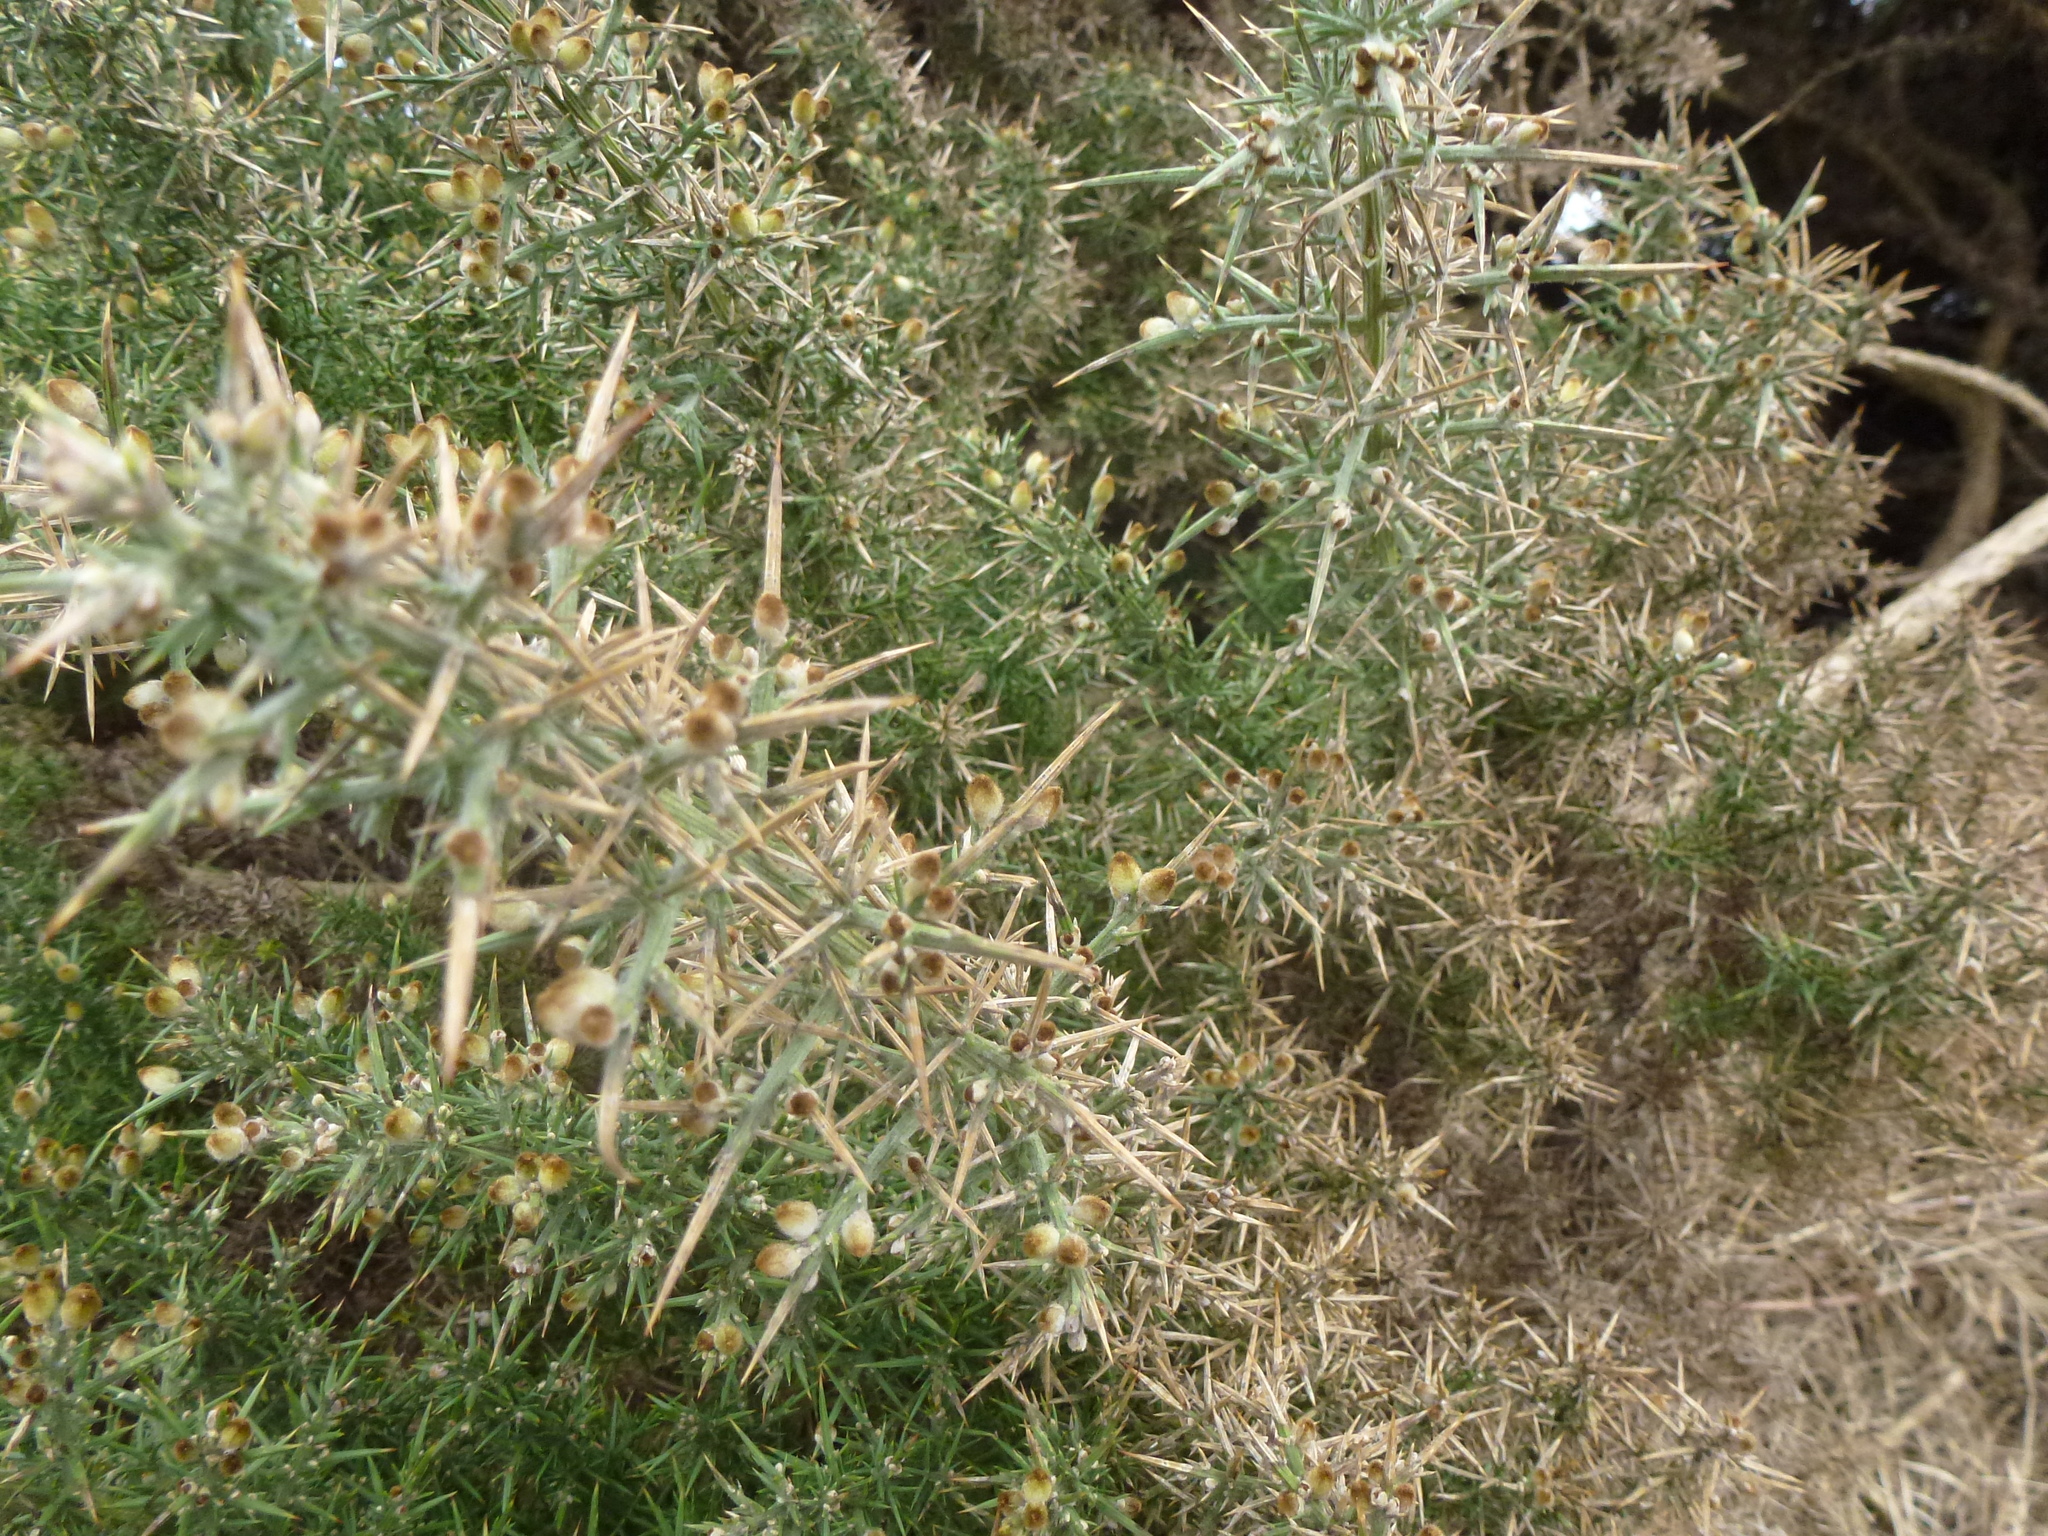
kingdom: Plantae
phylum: Tracheophyta
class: Magnoliopsida
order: Fabales
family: Fabaceae
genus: Ulex
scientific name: Ulex europaeus
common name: Common gorse
